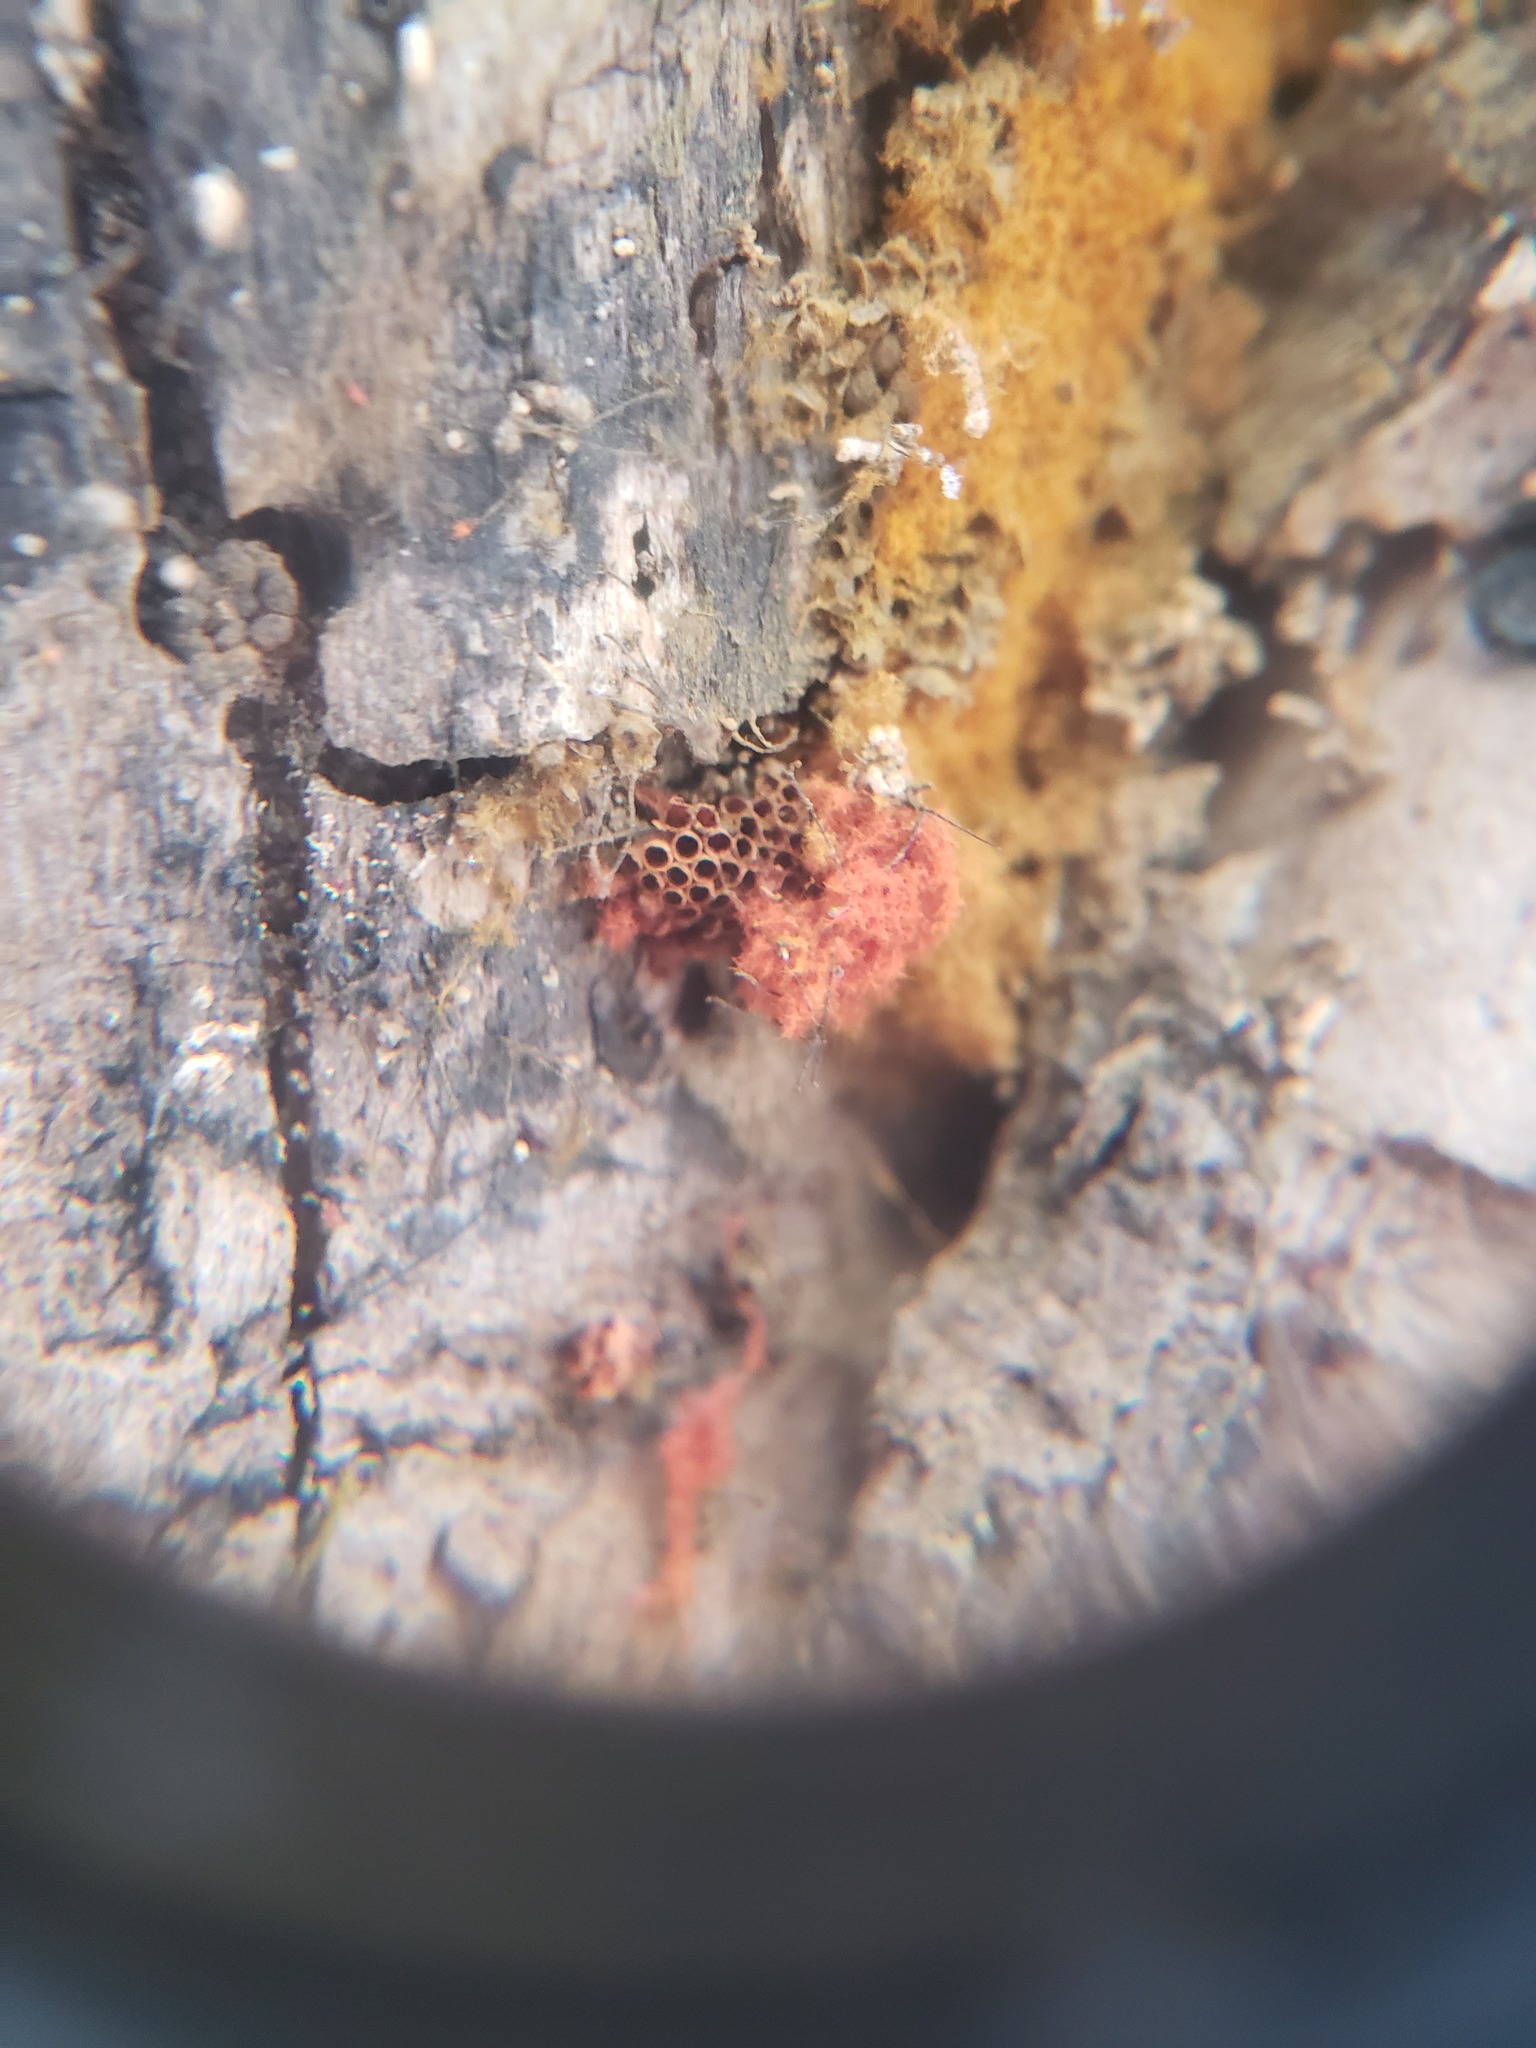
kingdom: Protozoa
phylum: Mycetozoa
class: Myxomycetes
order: Trichiales
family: Trichiaceae
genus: Metatrichia
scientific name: Metatrichia vesparia
